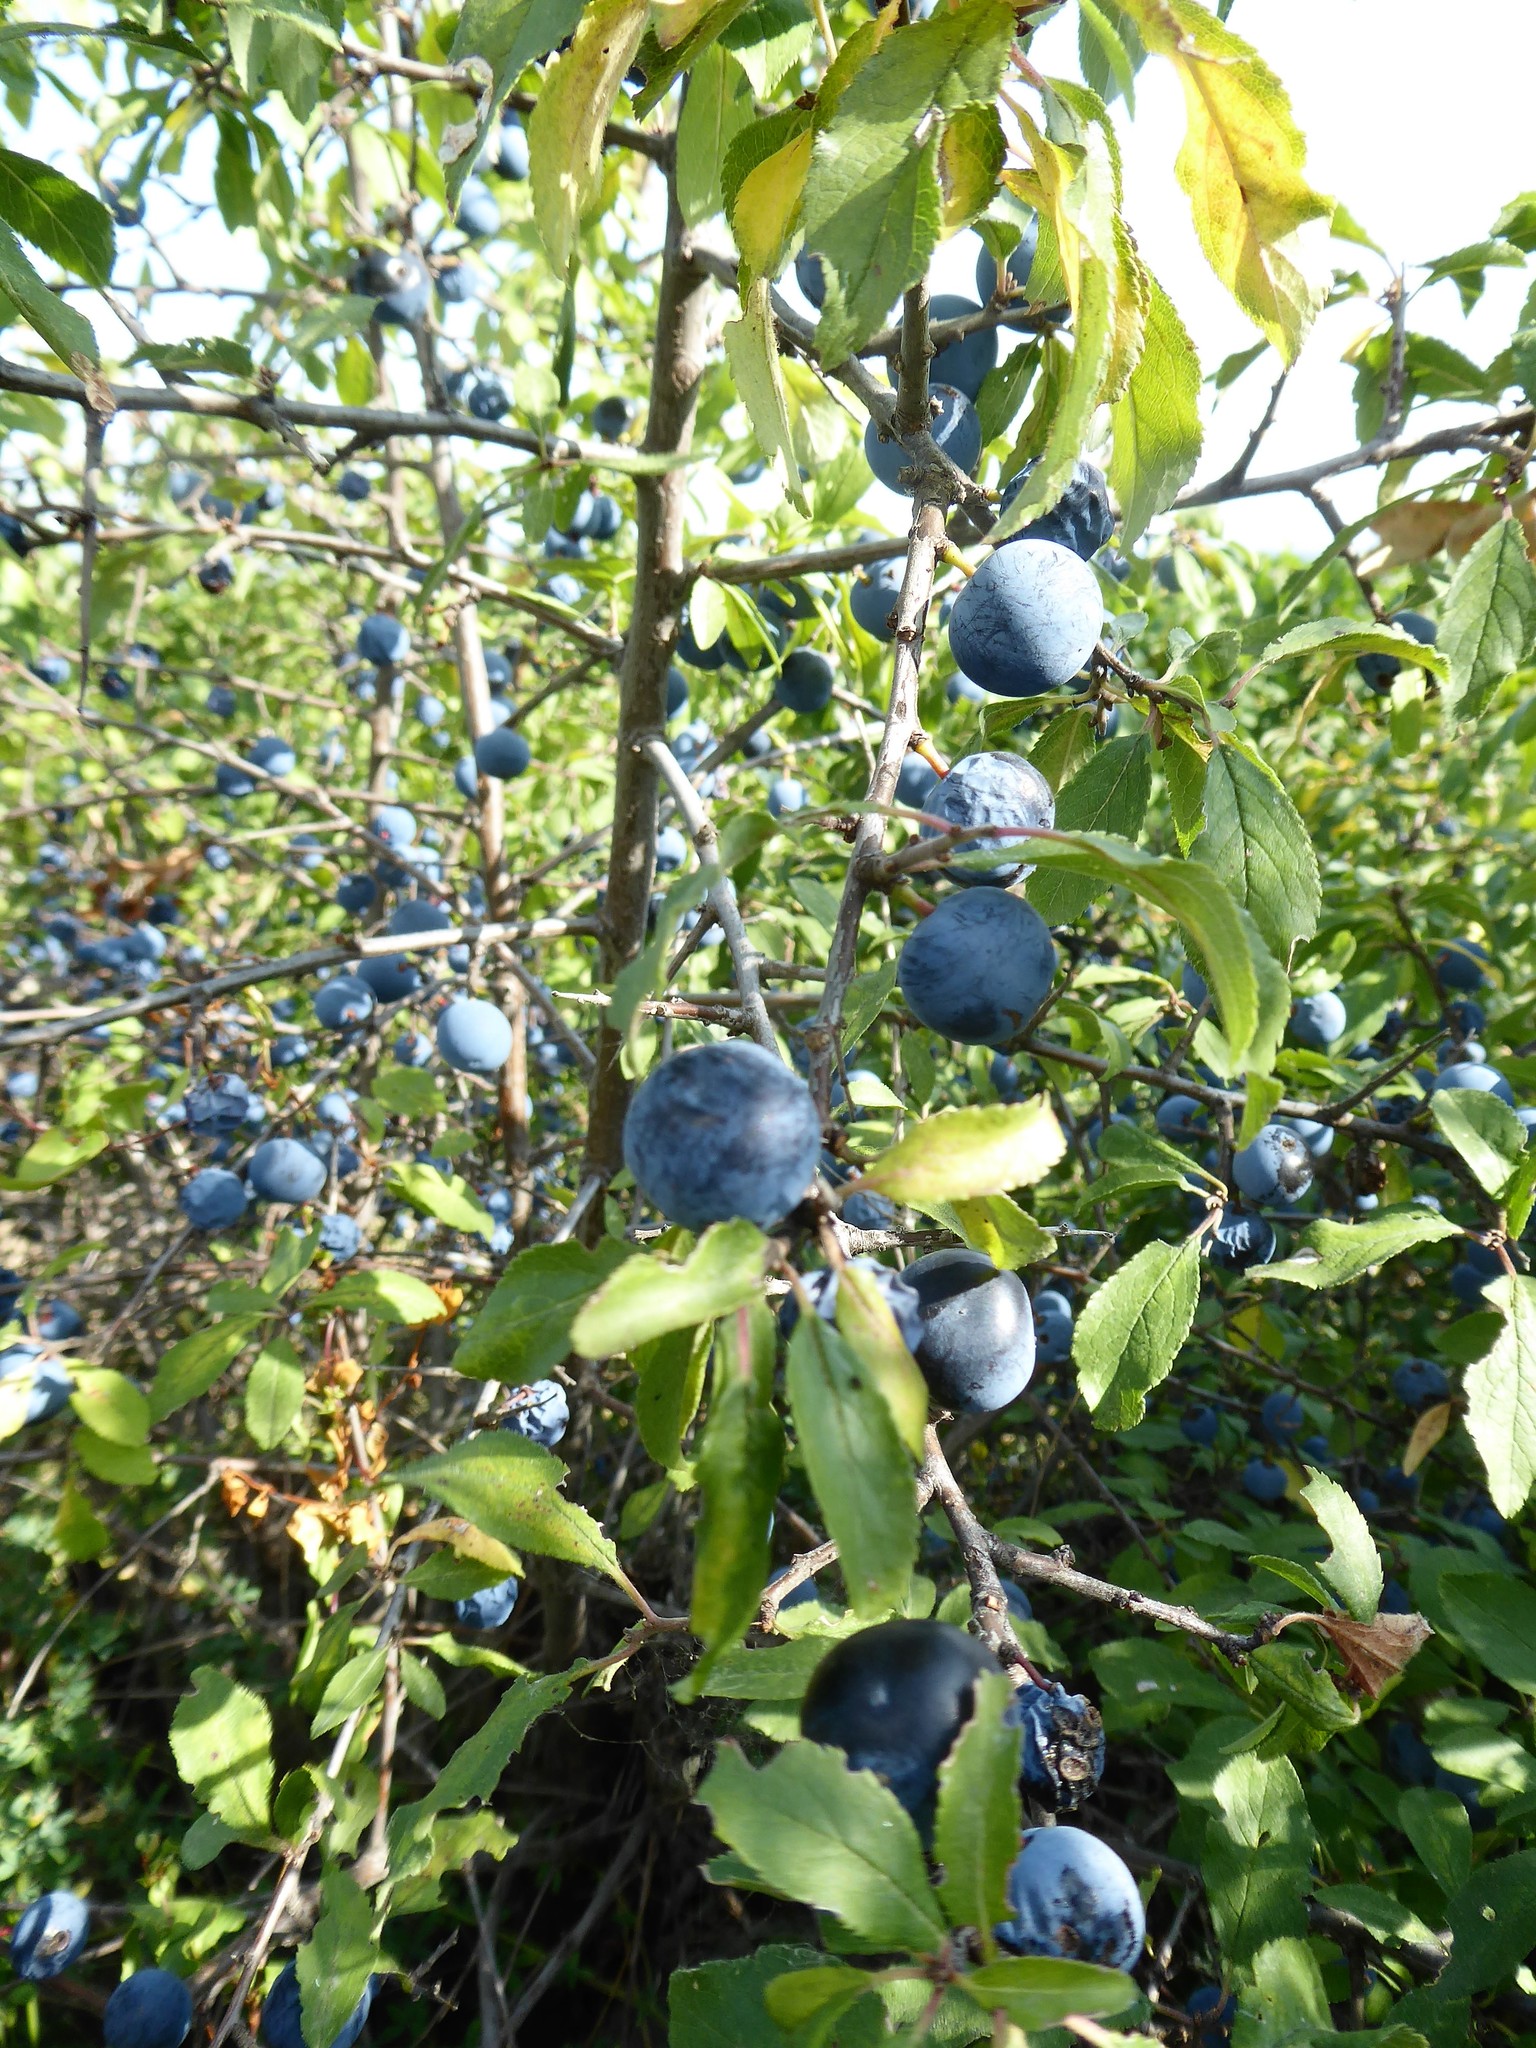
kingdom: Plantae
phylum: Tracheophyta
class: Magnoliopsida
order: Rosales
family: Rosaceae
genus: Prunus
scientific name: Prunus spinosa
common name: Blackthorn
